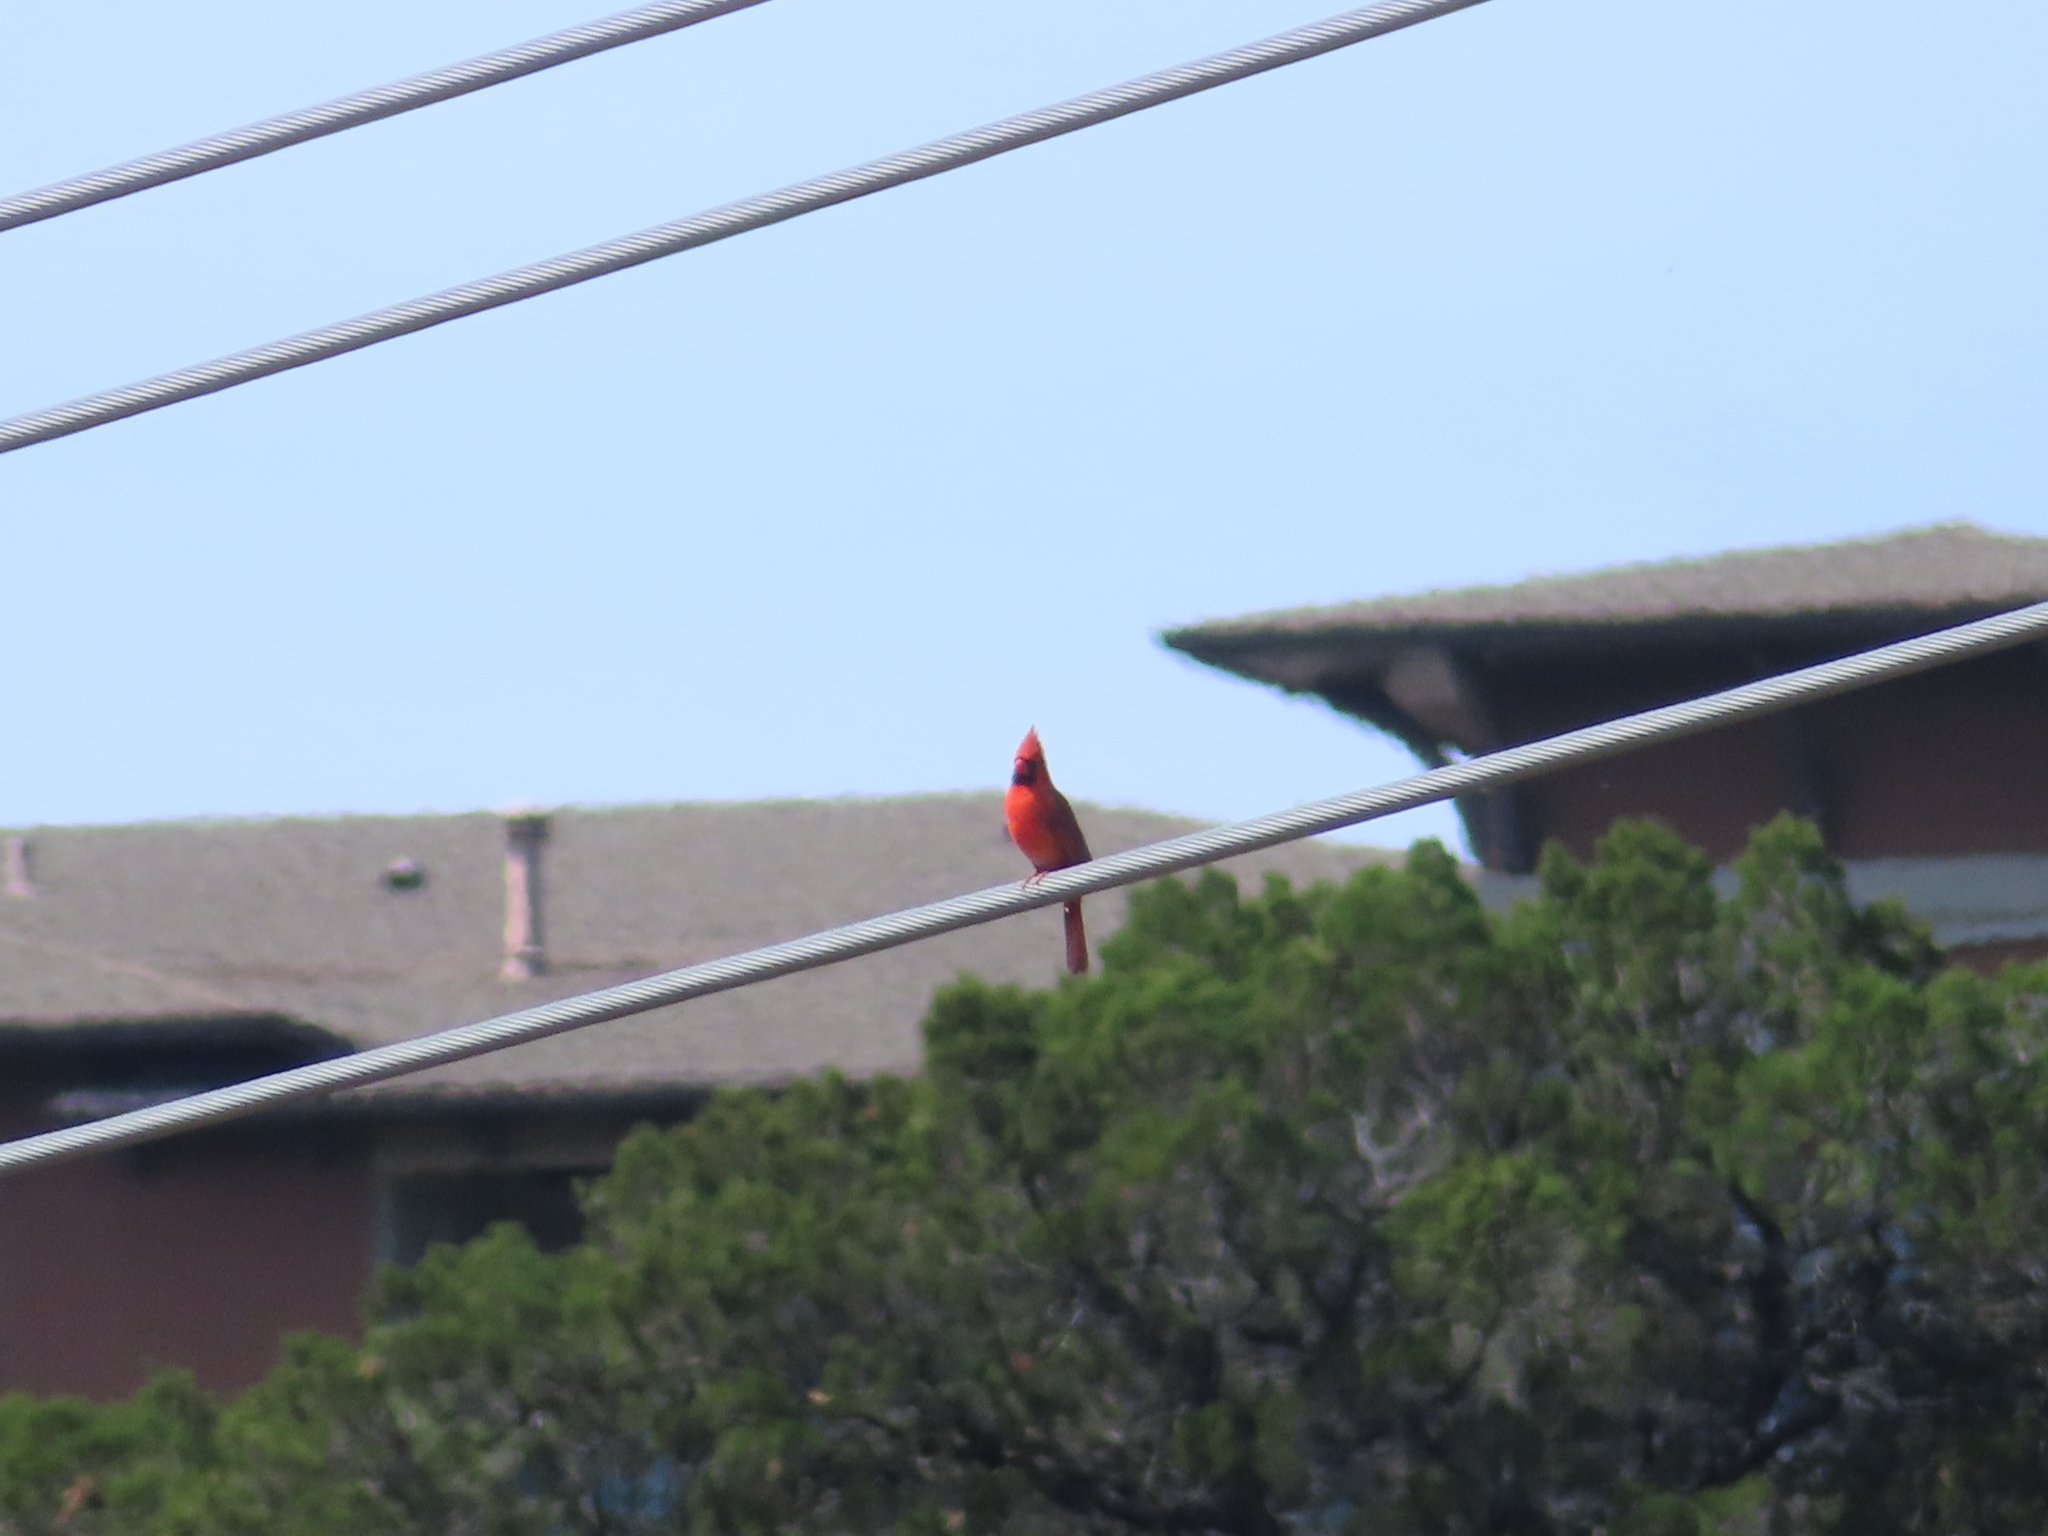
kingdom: Animalia
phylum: Chordata
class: Aves
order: Passeriformes
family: Cardinalidae
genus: Cardinalis
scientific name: Cardinalis cardinalis
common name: Northern cardinal
